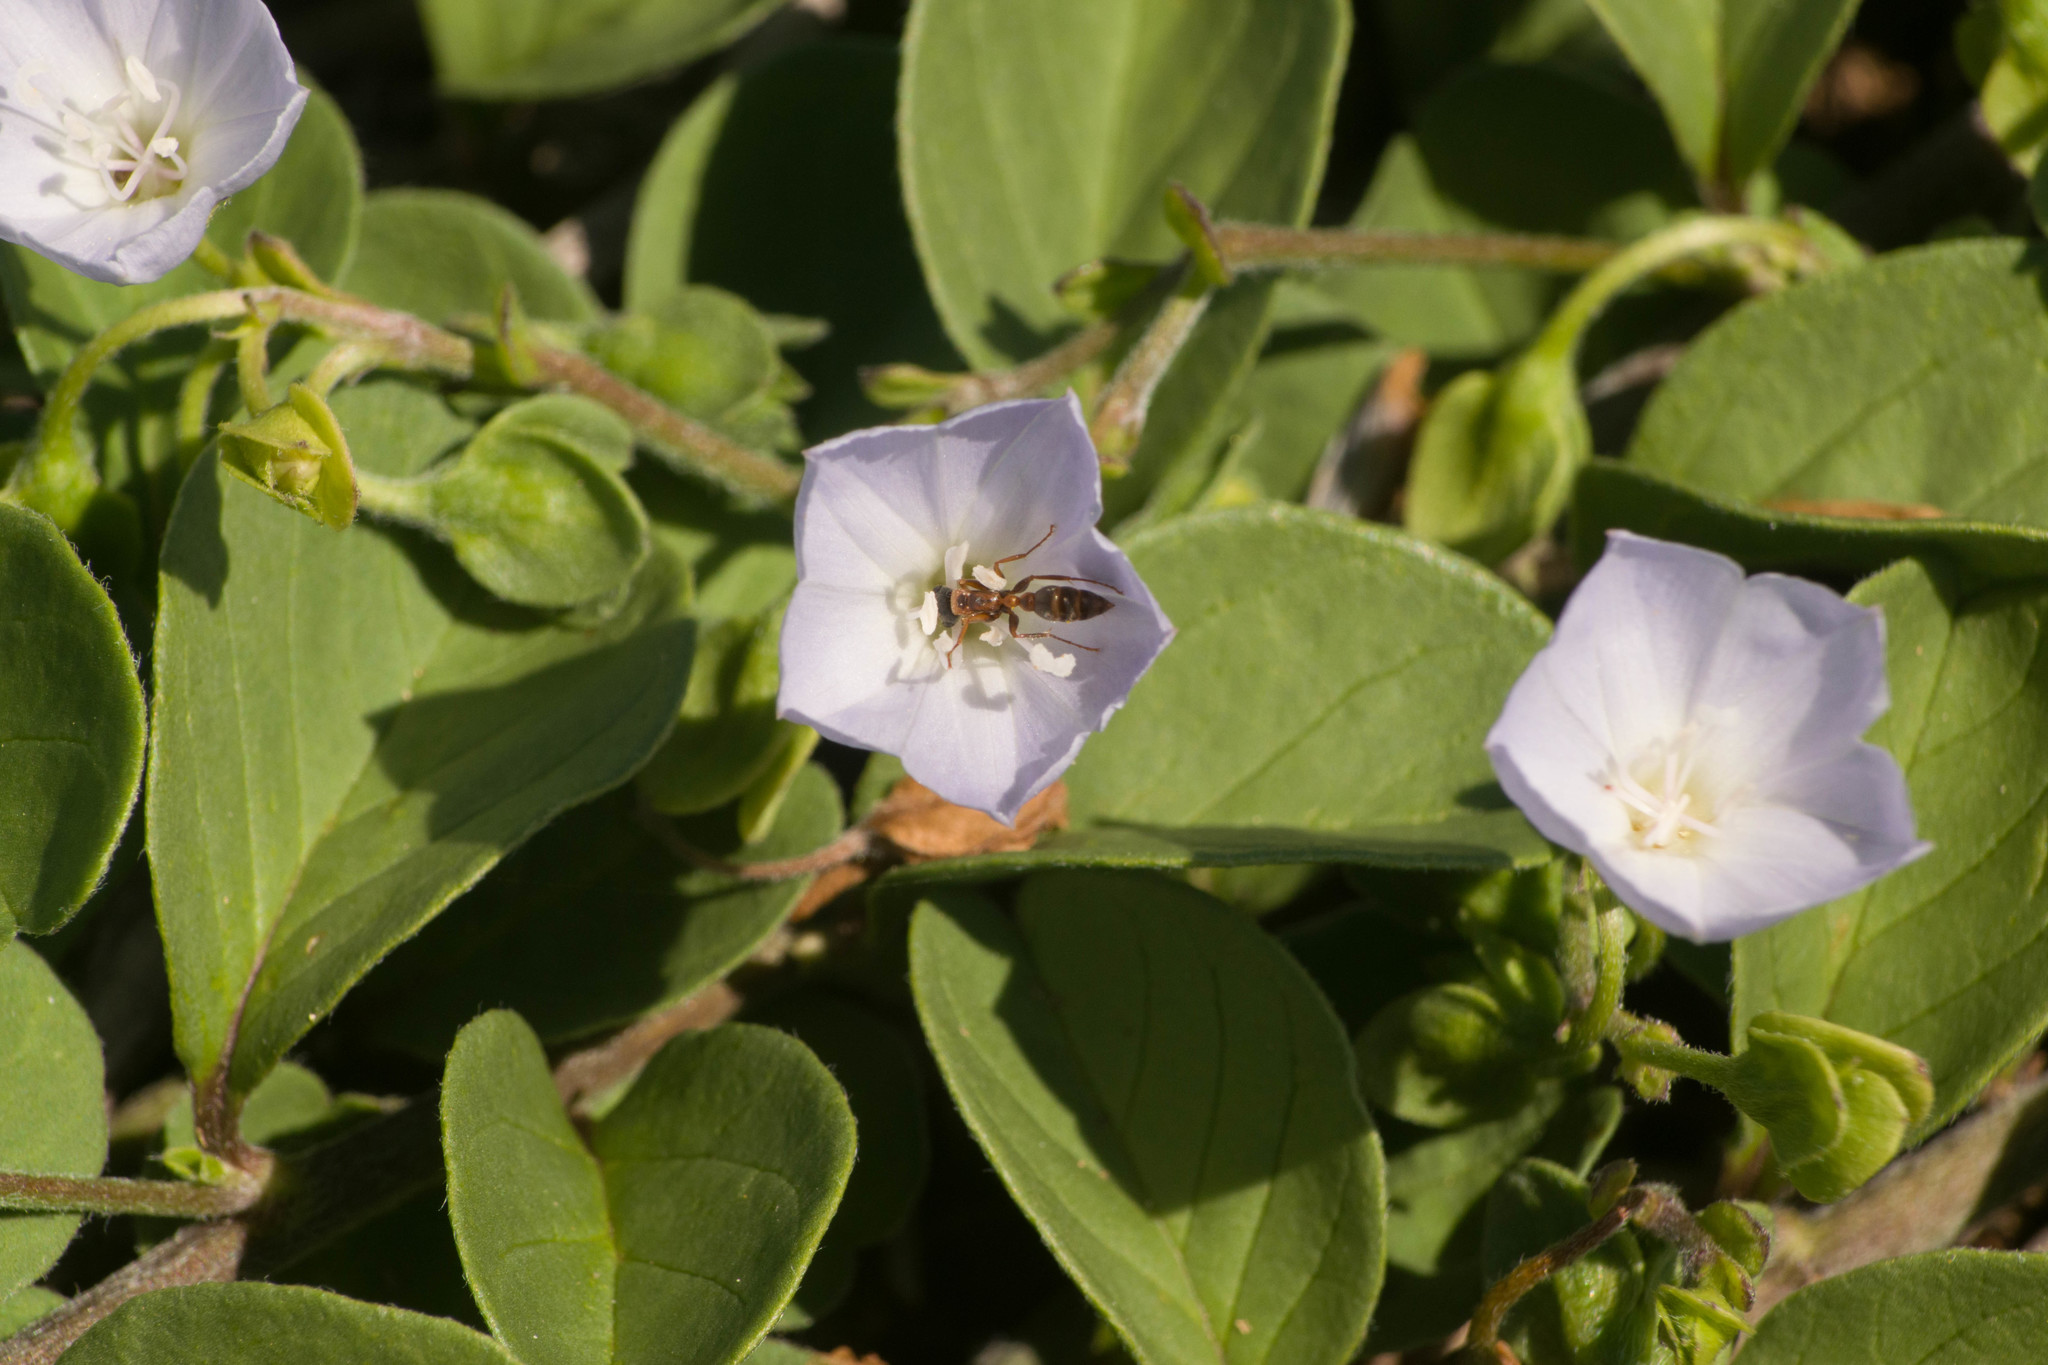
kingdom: Plantae
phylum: Tracheophyta
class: Magnoliopsida
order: Solanales
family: Convolvulaceae
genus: Jacquemontia
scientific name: Jacquemontia sandwicensis
